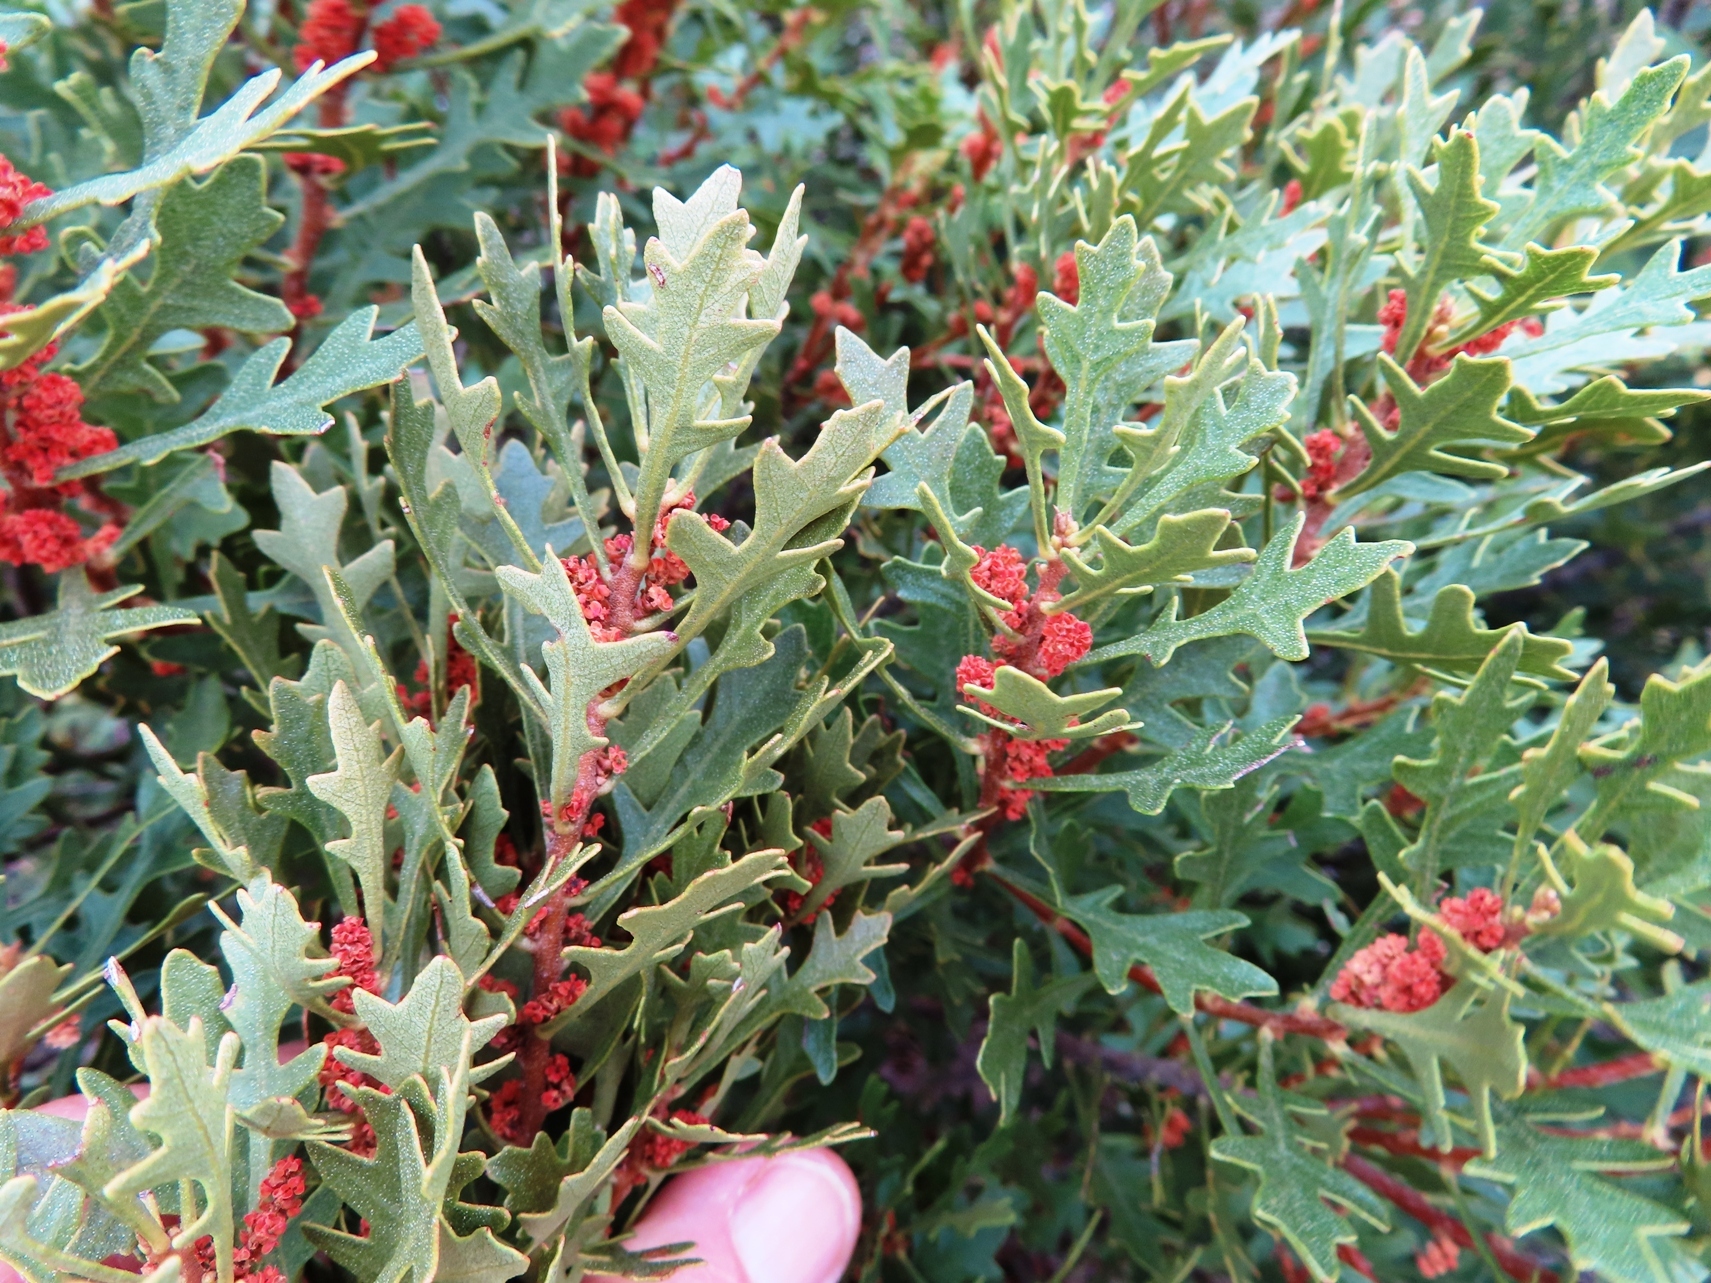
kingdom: Plantae
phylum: Tracheophyta
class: Magnoliopsida
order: Fagales
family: Myricaceae
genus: Morella
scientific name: Morella quercifolia
